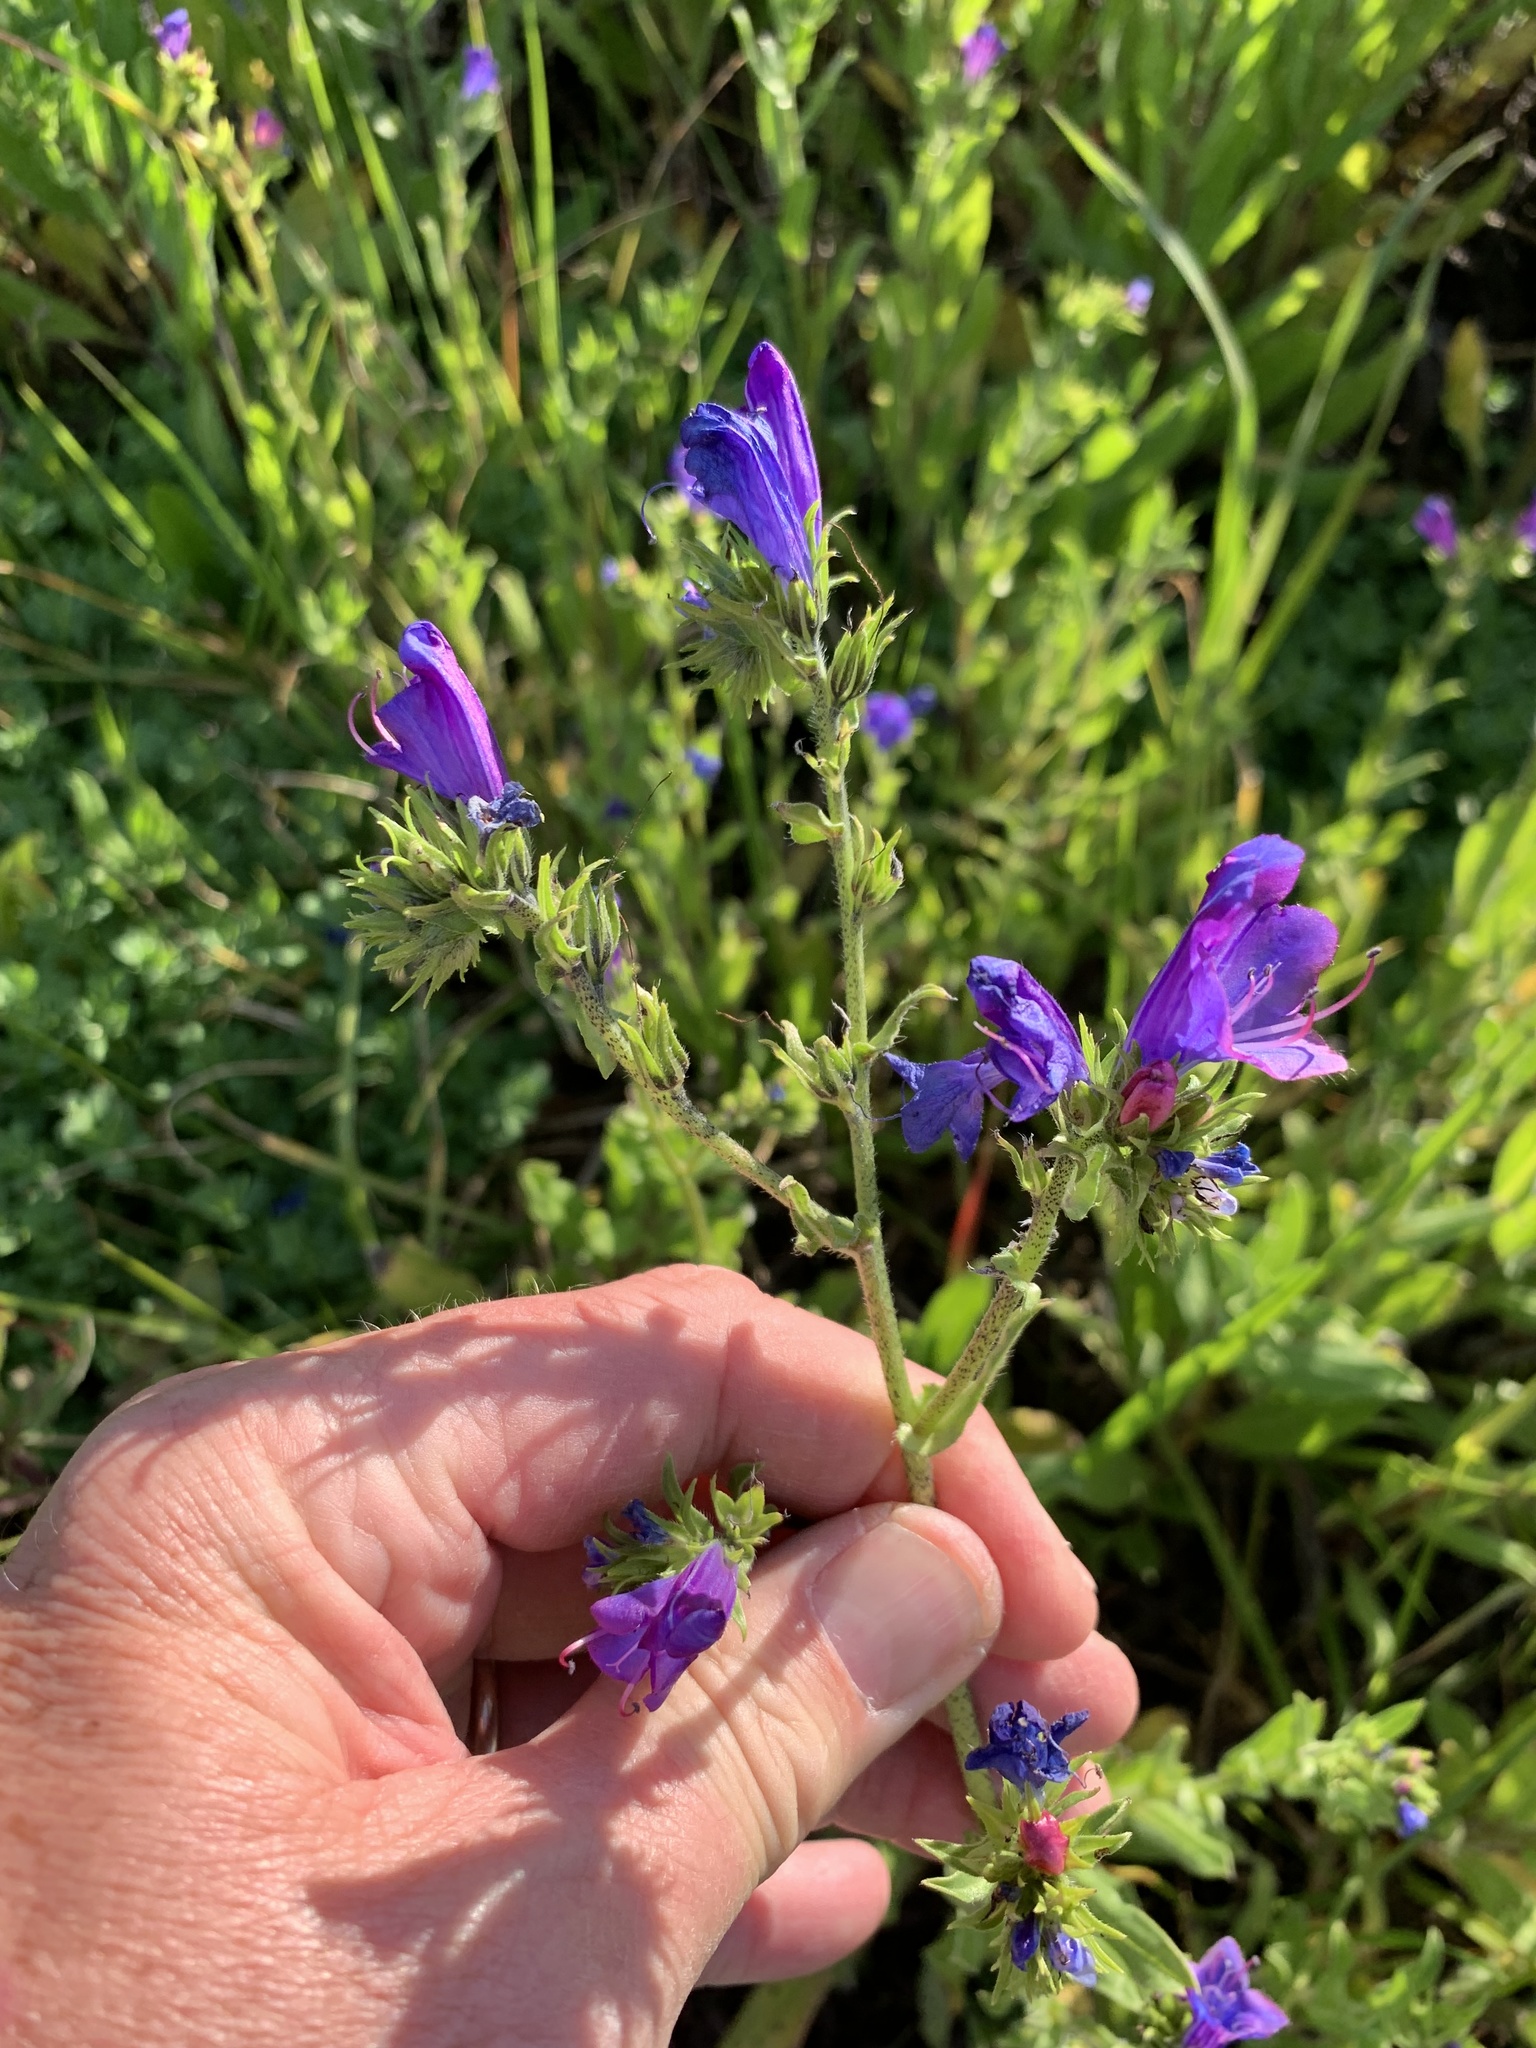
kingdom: Plantae
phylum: Tracheophyta
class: Magnoliopsida
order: Boraginales
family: Boraginaceae
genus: Echium
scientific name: Echium plantagineum
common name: Purple viper's-bugloss
